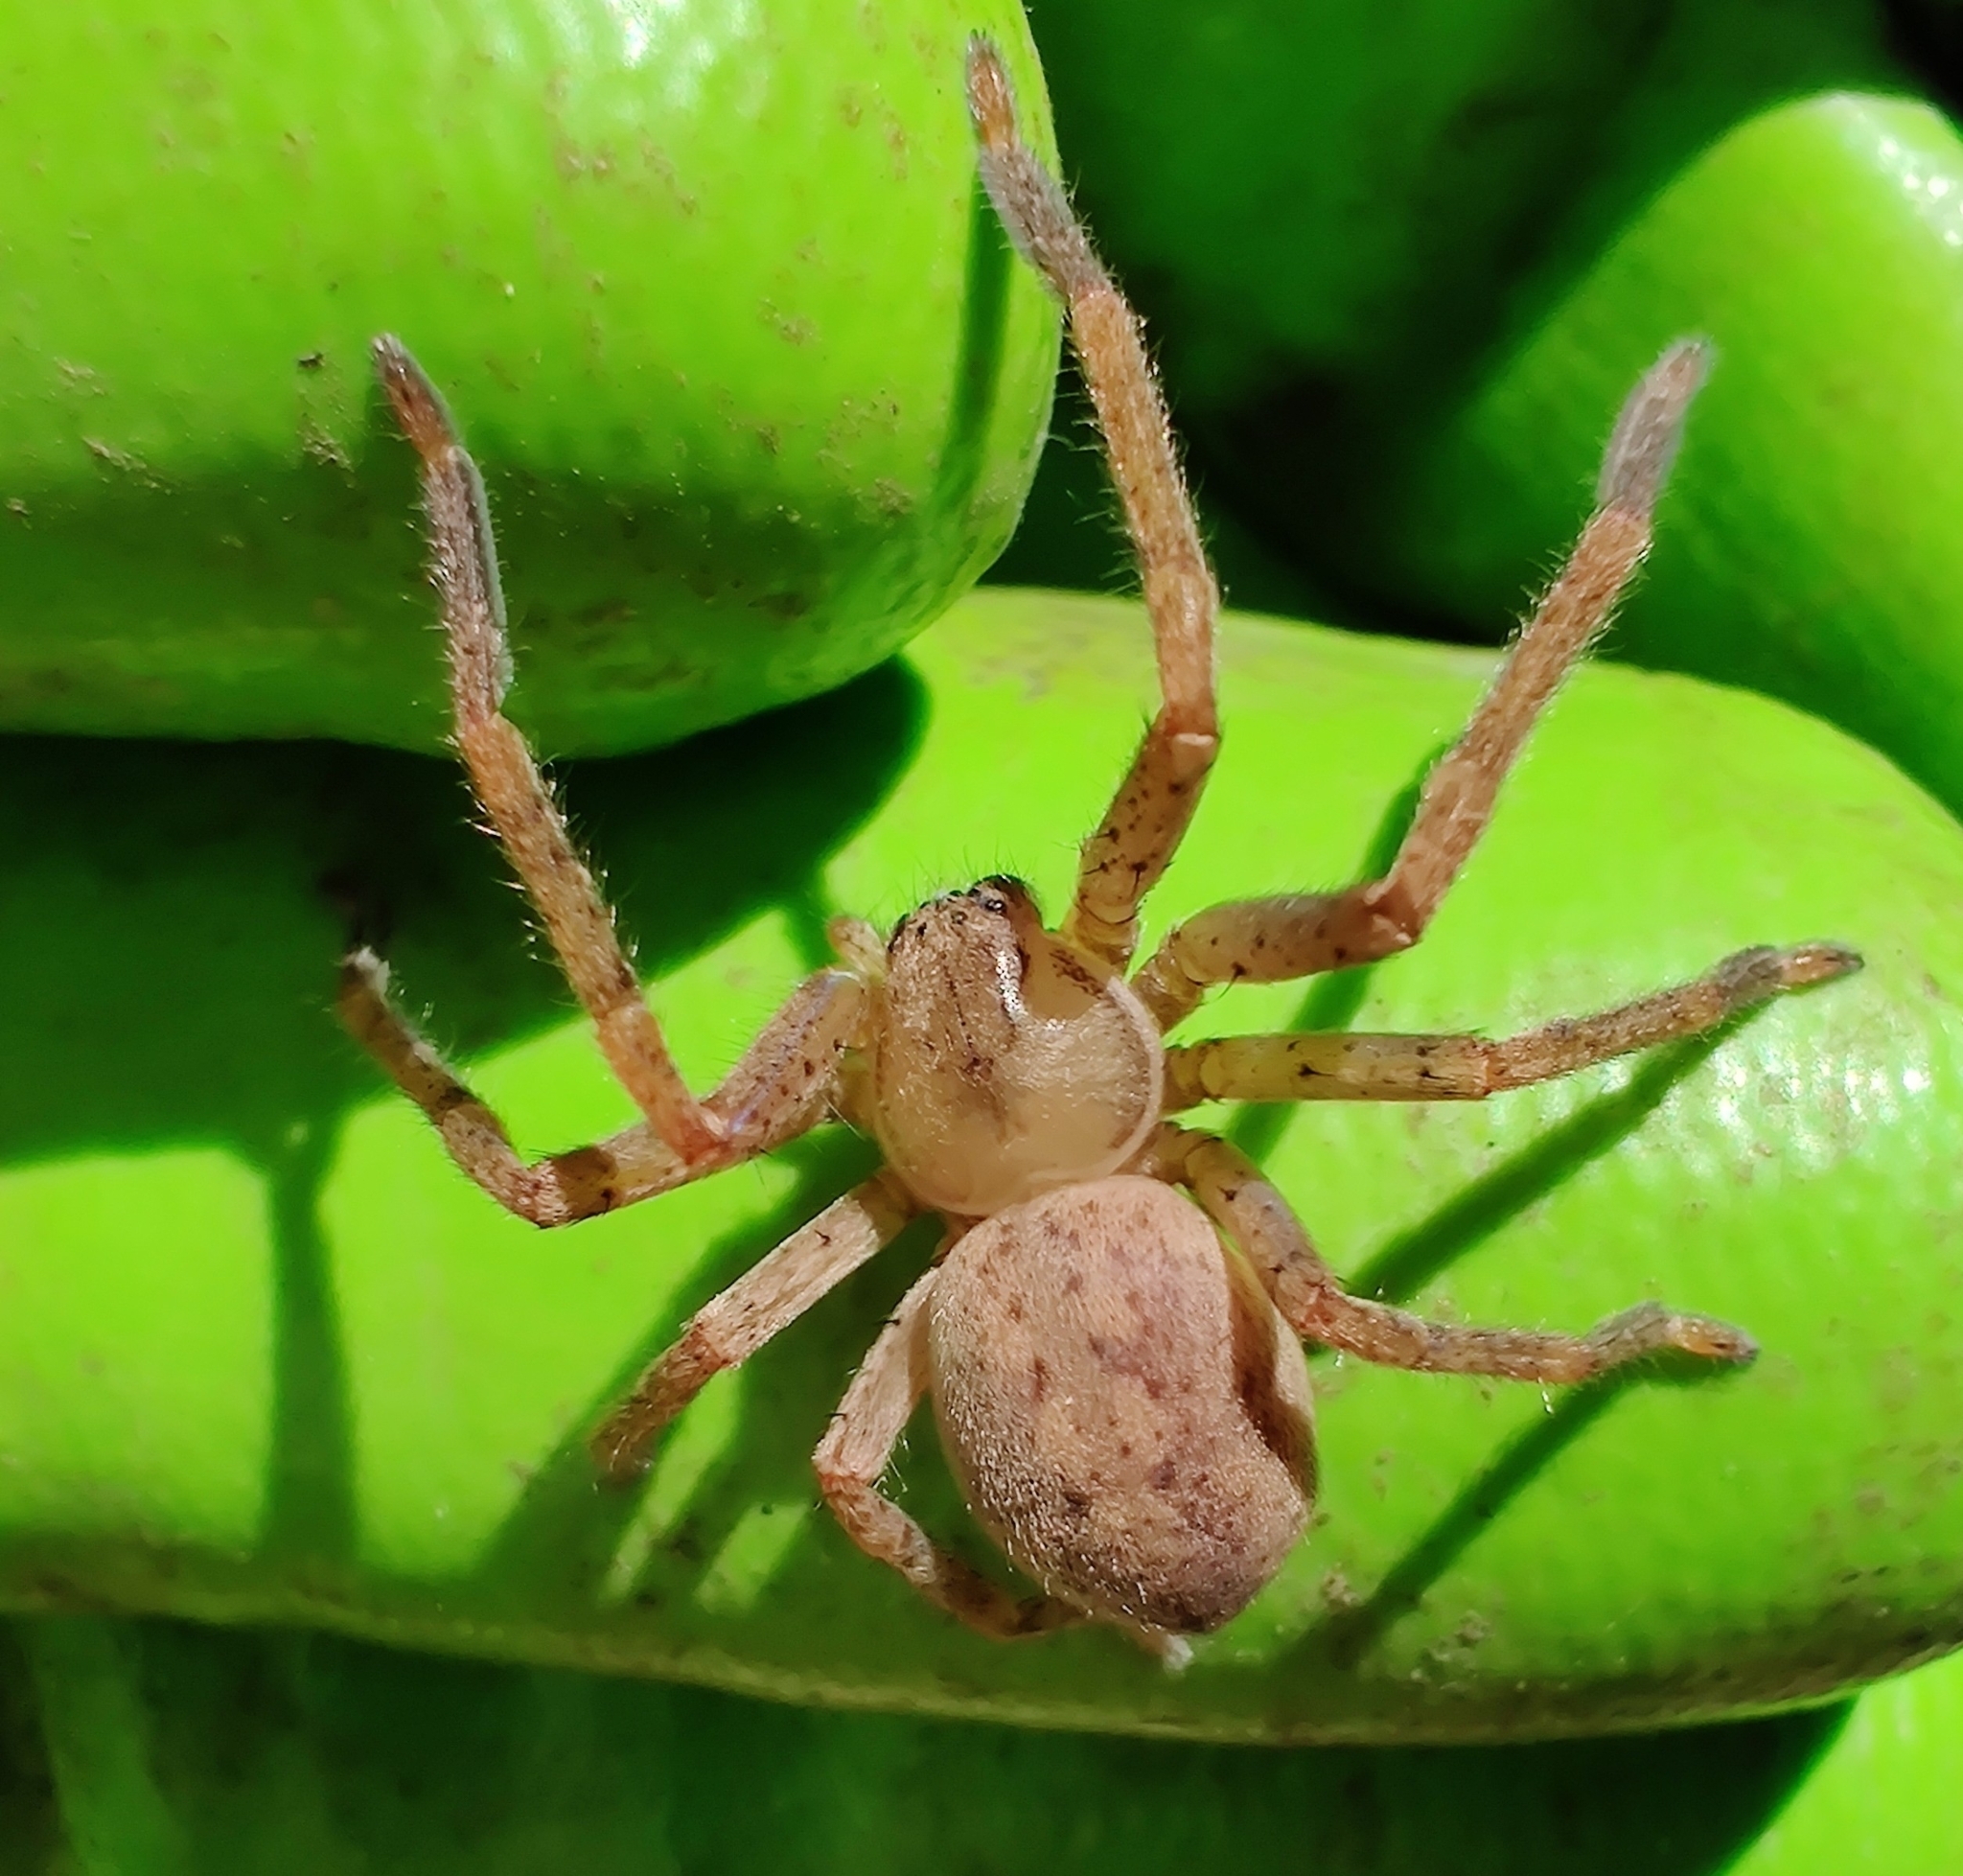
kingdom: Animalia
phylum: Arthropoda
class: Arachnida
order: Araneae
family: Sparassidae
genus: Olios
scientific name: Olios argelasius
